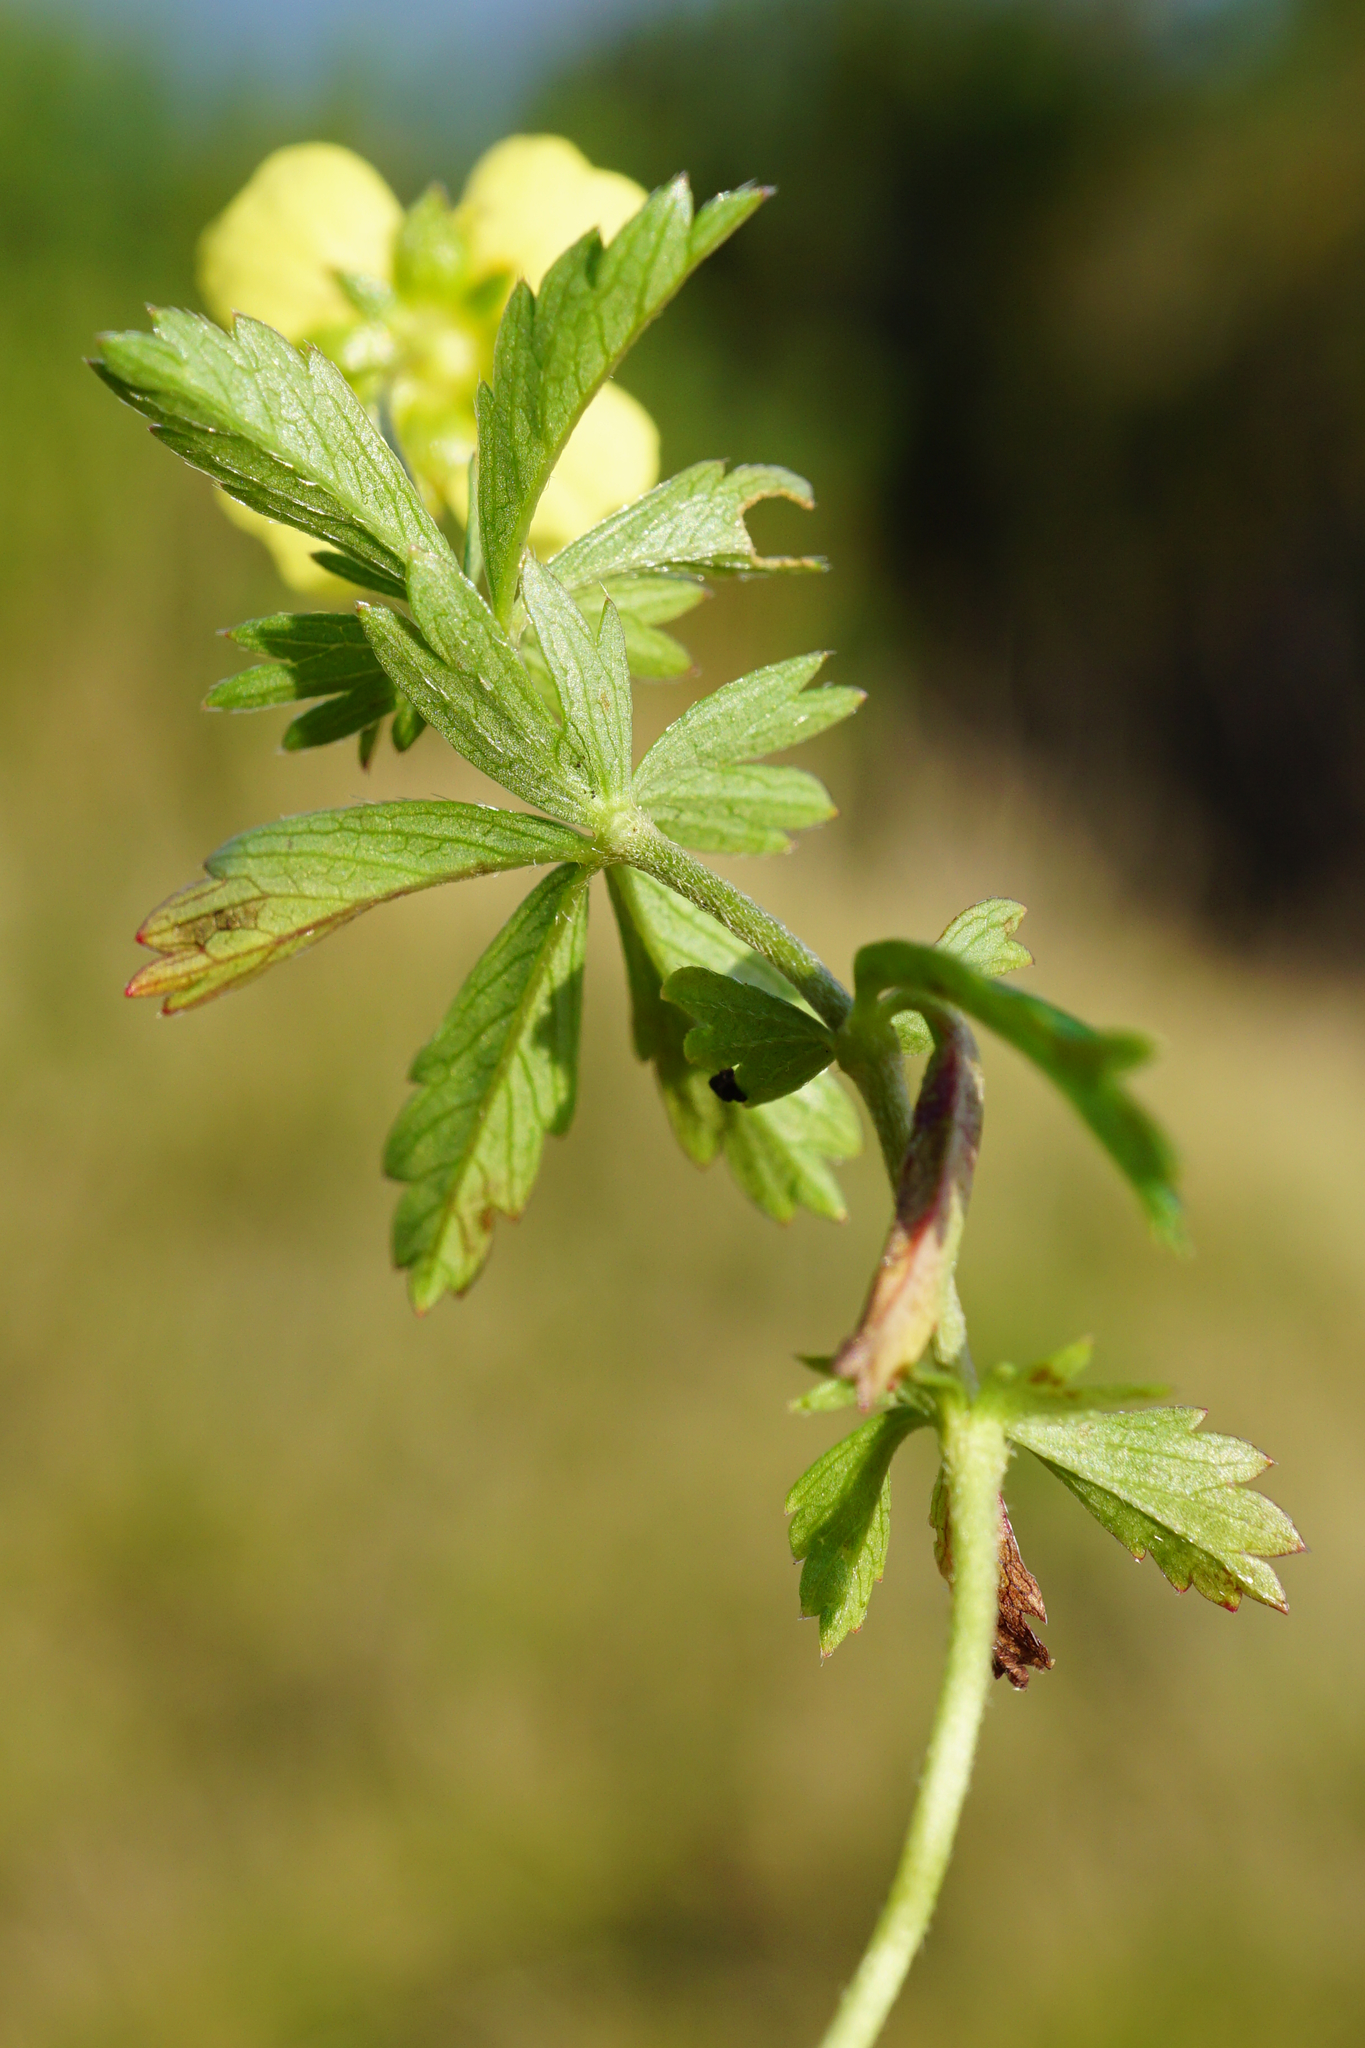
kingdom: Plantae
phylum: Tracheophyta
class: Magnoliopsida
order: Rosales
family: Rosaceae
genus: Potentilla
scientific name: Potentilla erecta
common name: Tormentil
